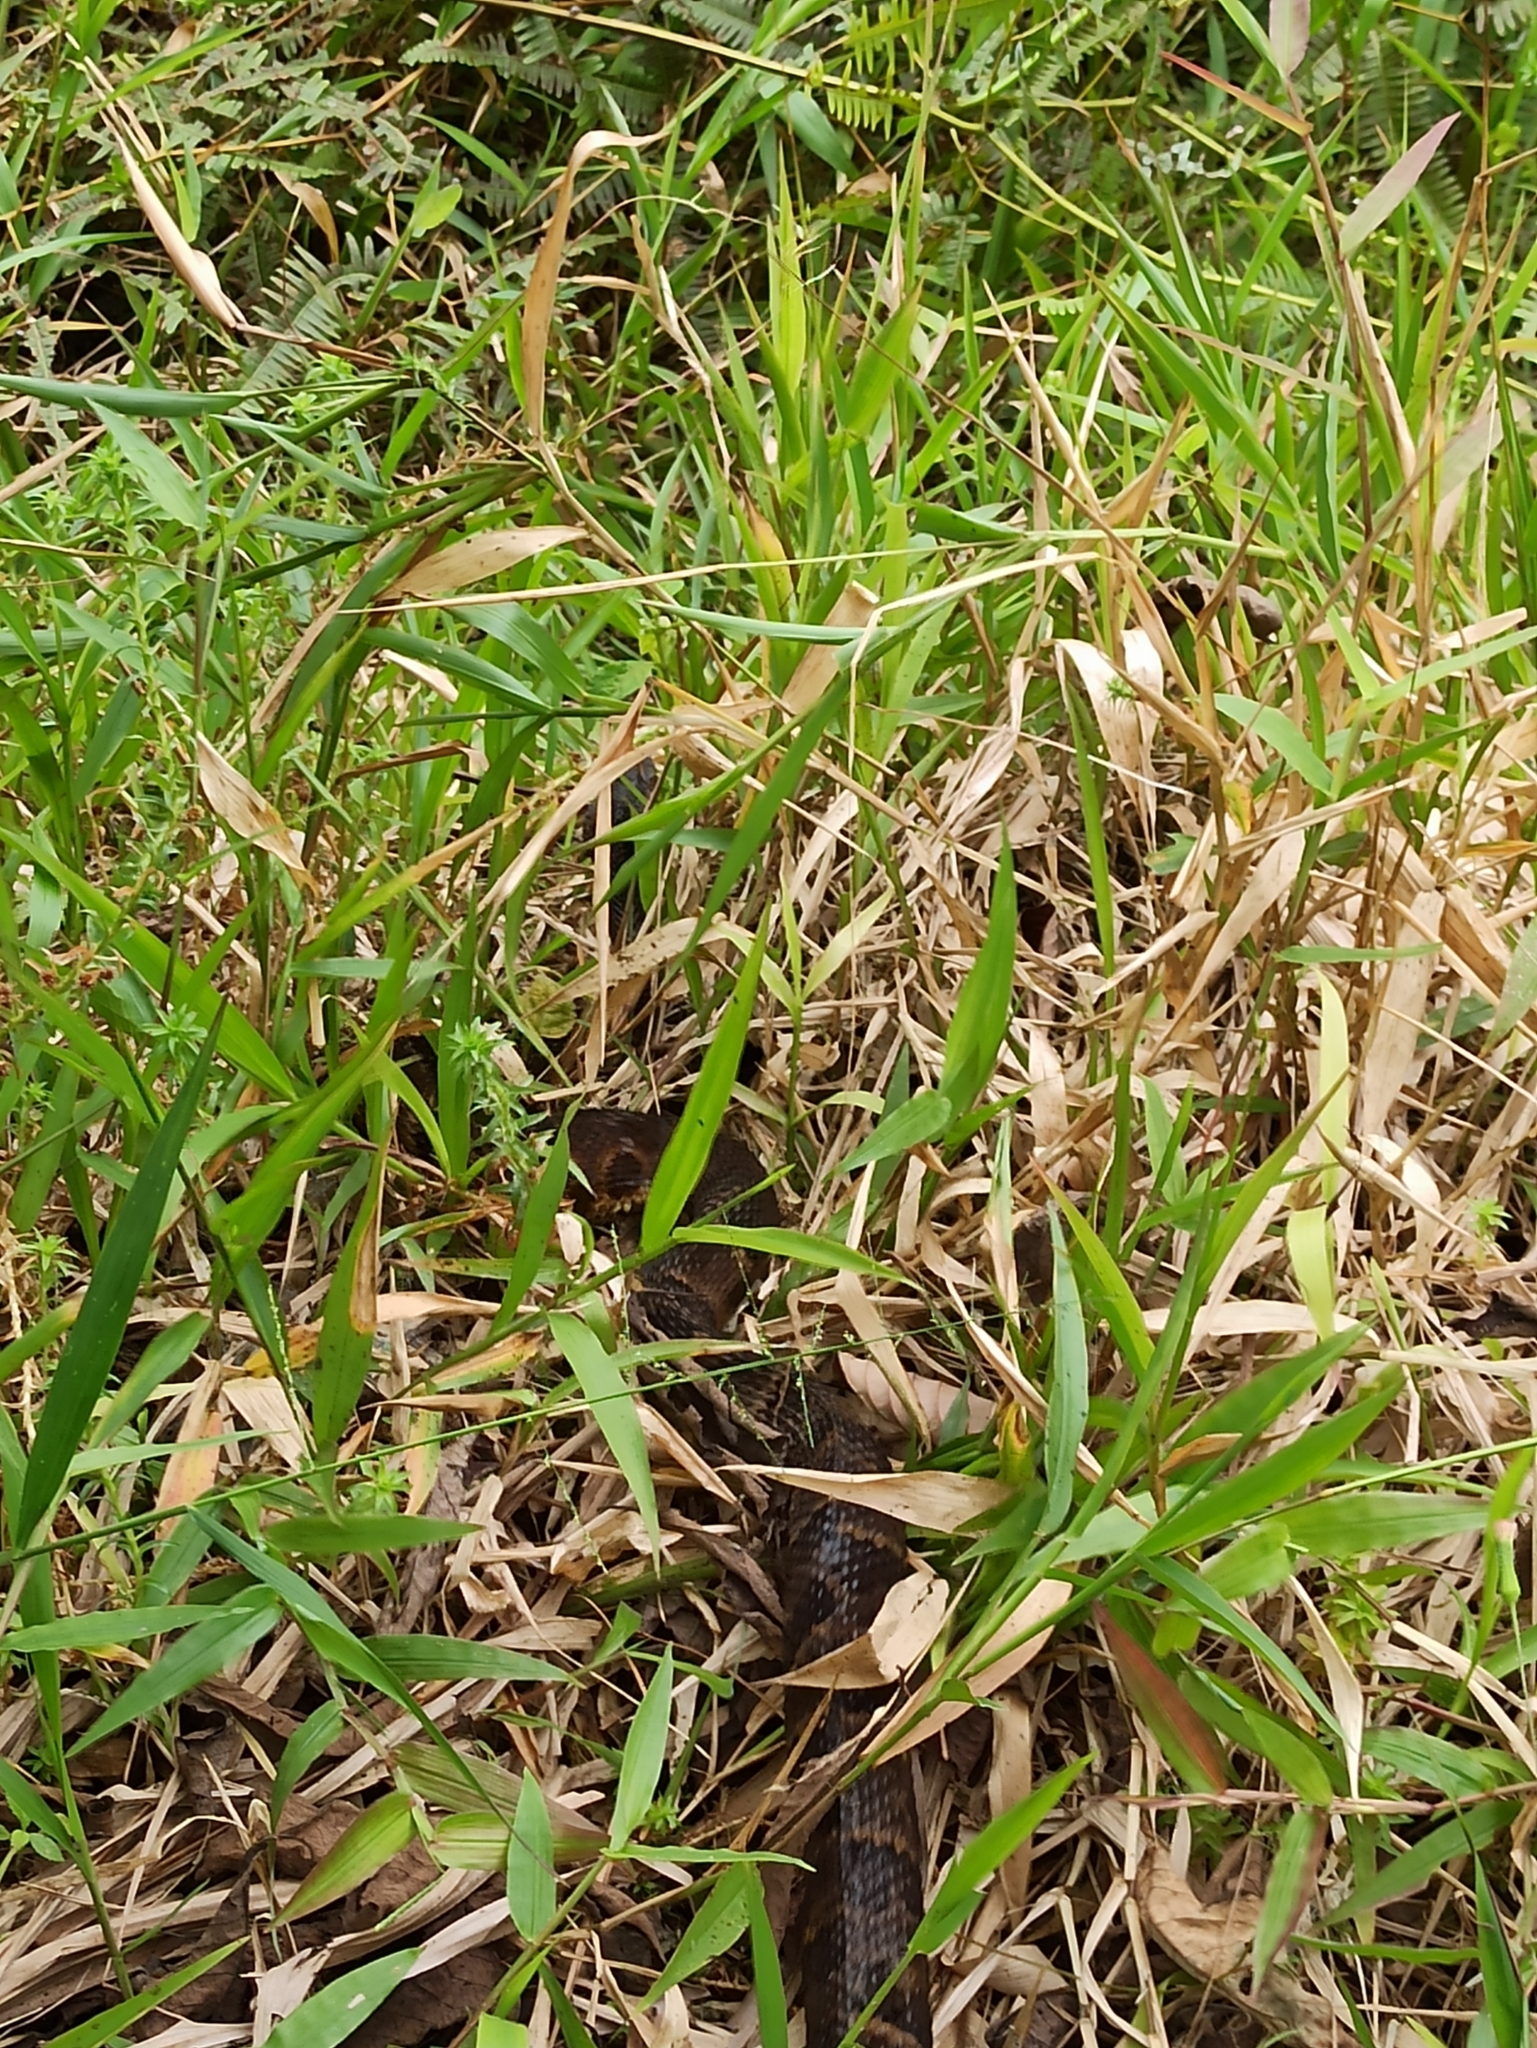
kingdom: Animalia
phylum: Chordata
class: Squamata
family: Viperidae
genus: Bothrops
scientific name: Bothrops punctatus
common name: Chocoan forest pit viper
